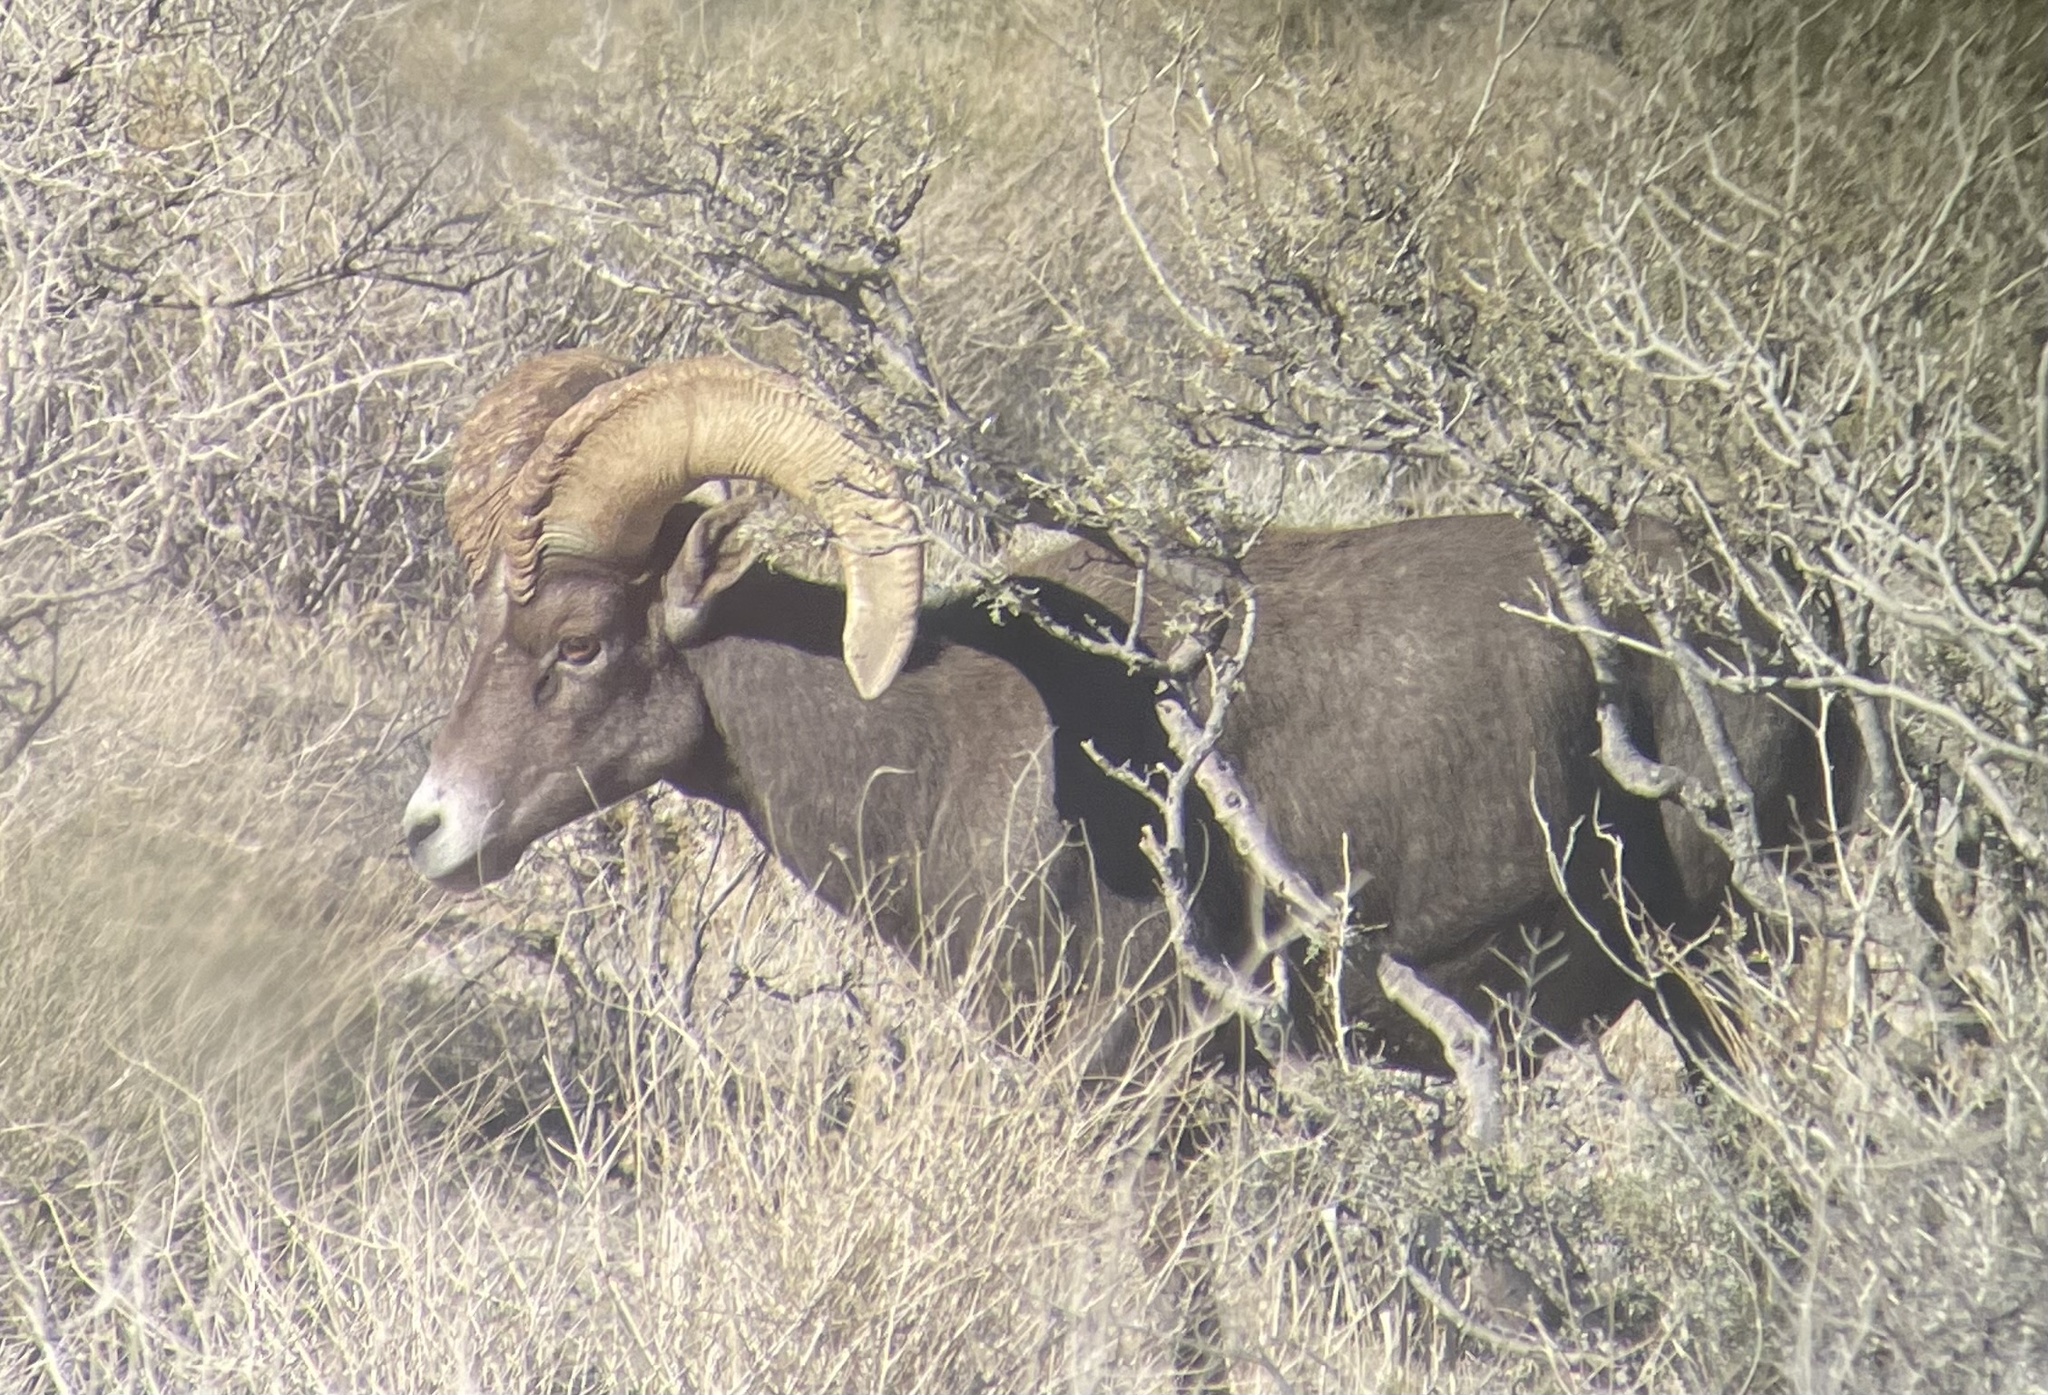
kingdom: Animalia
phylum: Chordata
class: Mammalia
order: Artiodactyla
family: Bovidae
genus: Ovis
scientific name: Ovis canadensis
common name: Bighorn sheep
